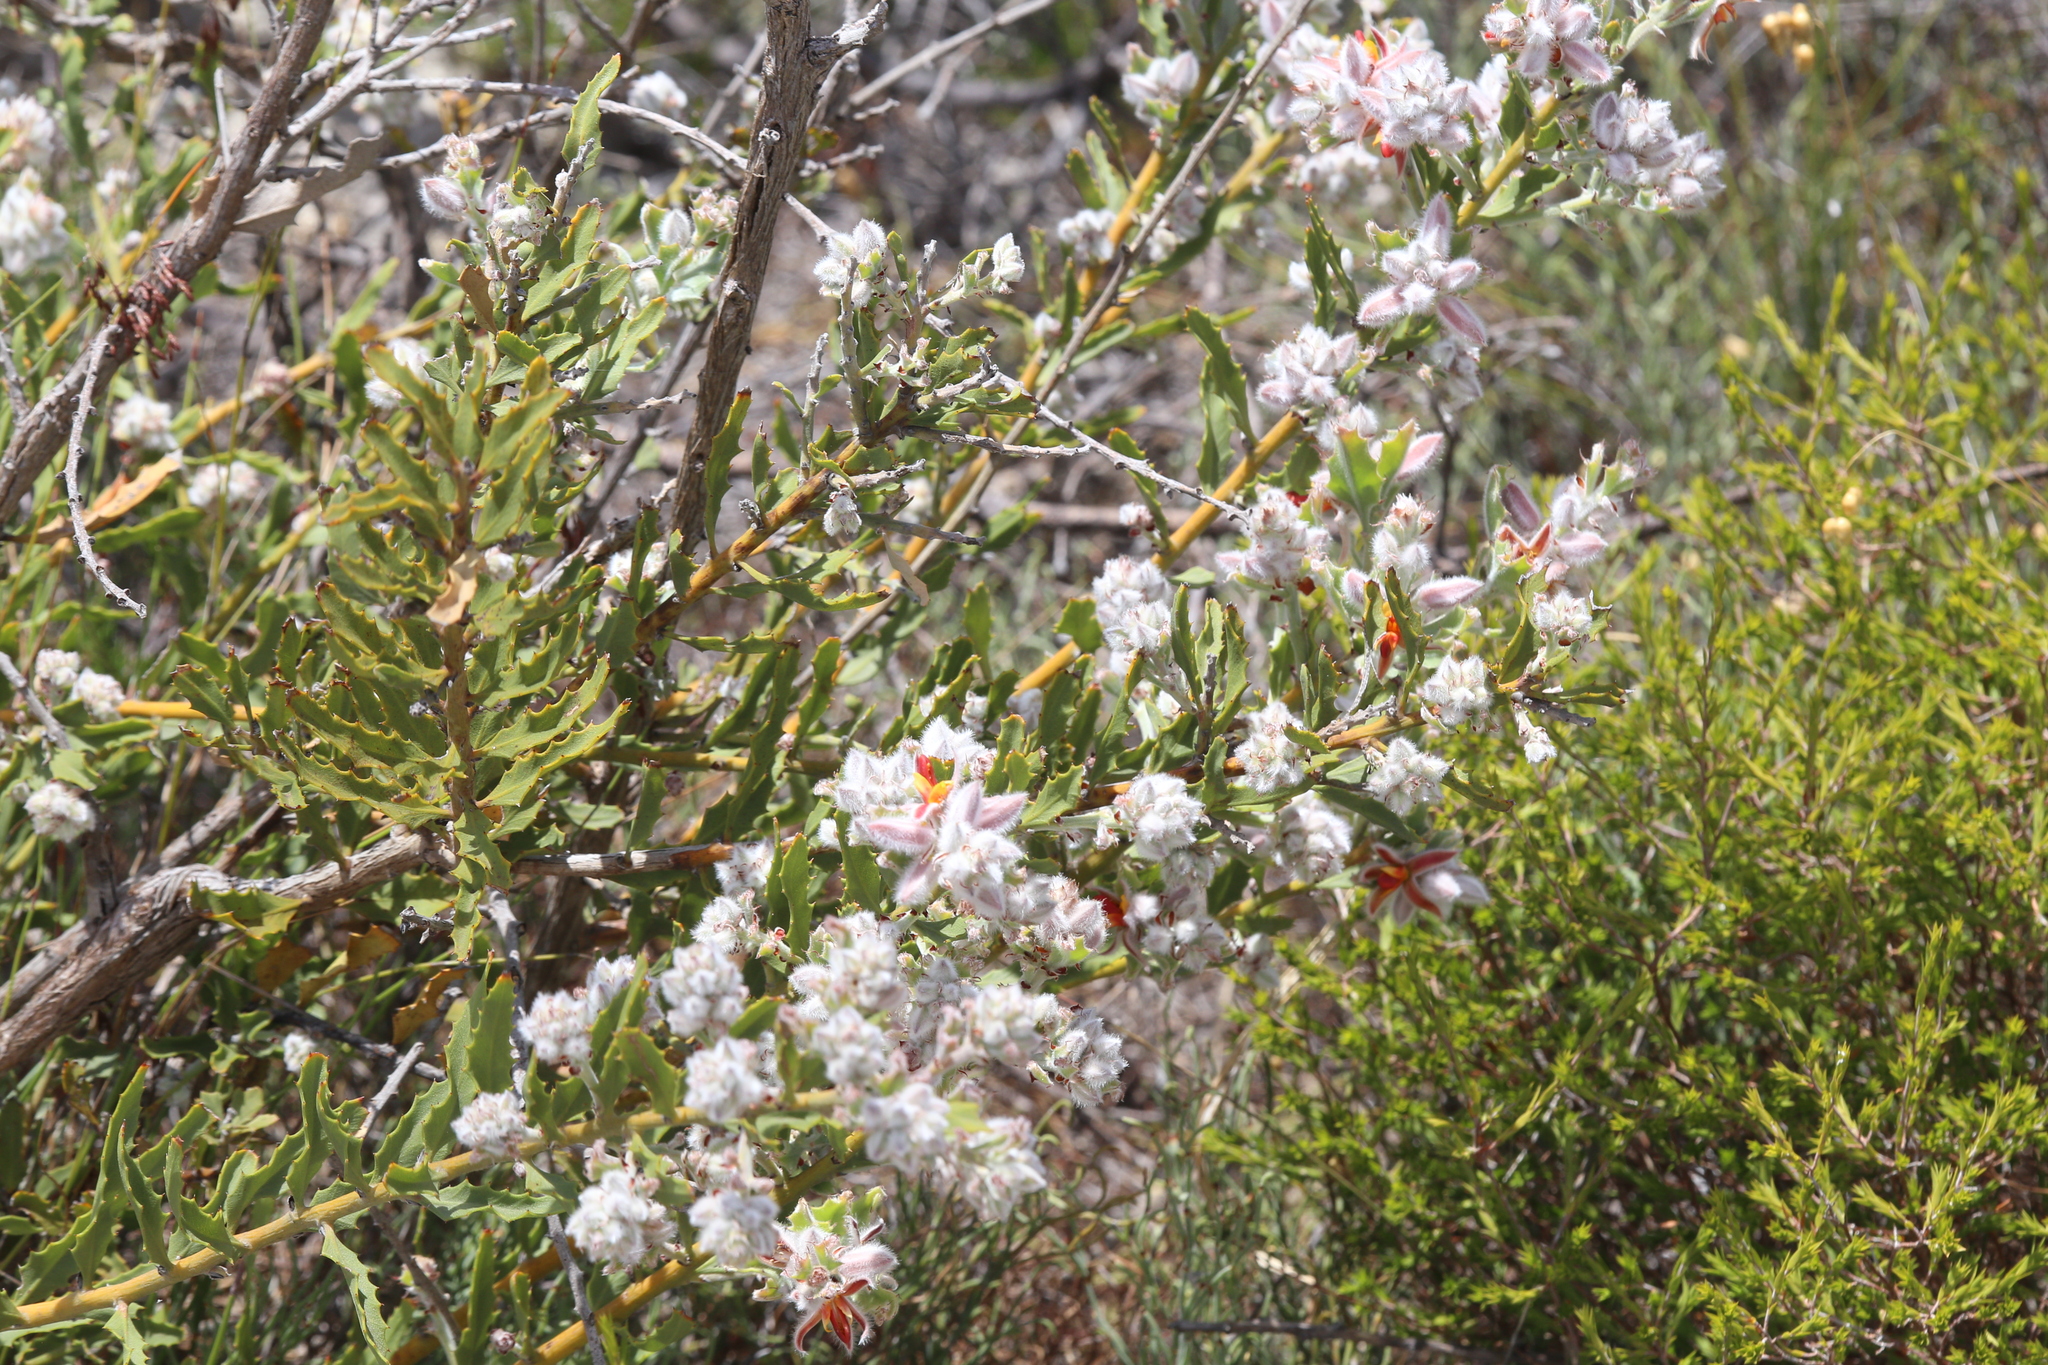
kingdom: Plantae
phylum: Tracheophyta
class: Magnoliopsida
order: Fabales
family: Fabaceae
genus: Jacksonia
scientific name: Jacksonia floribunda
